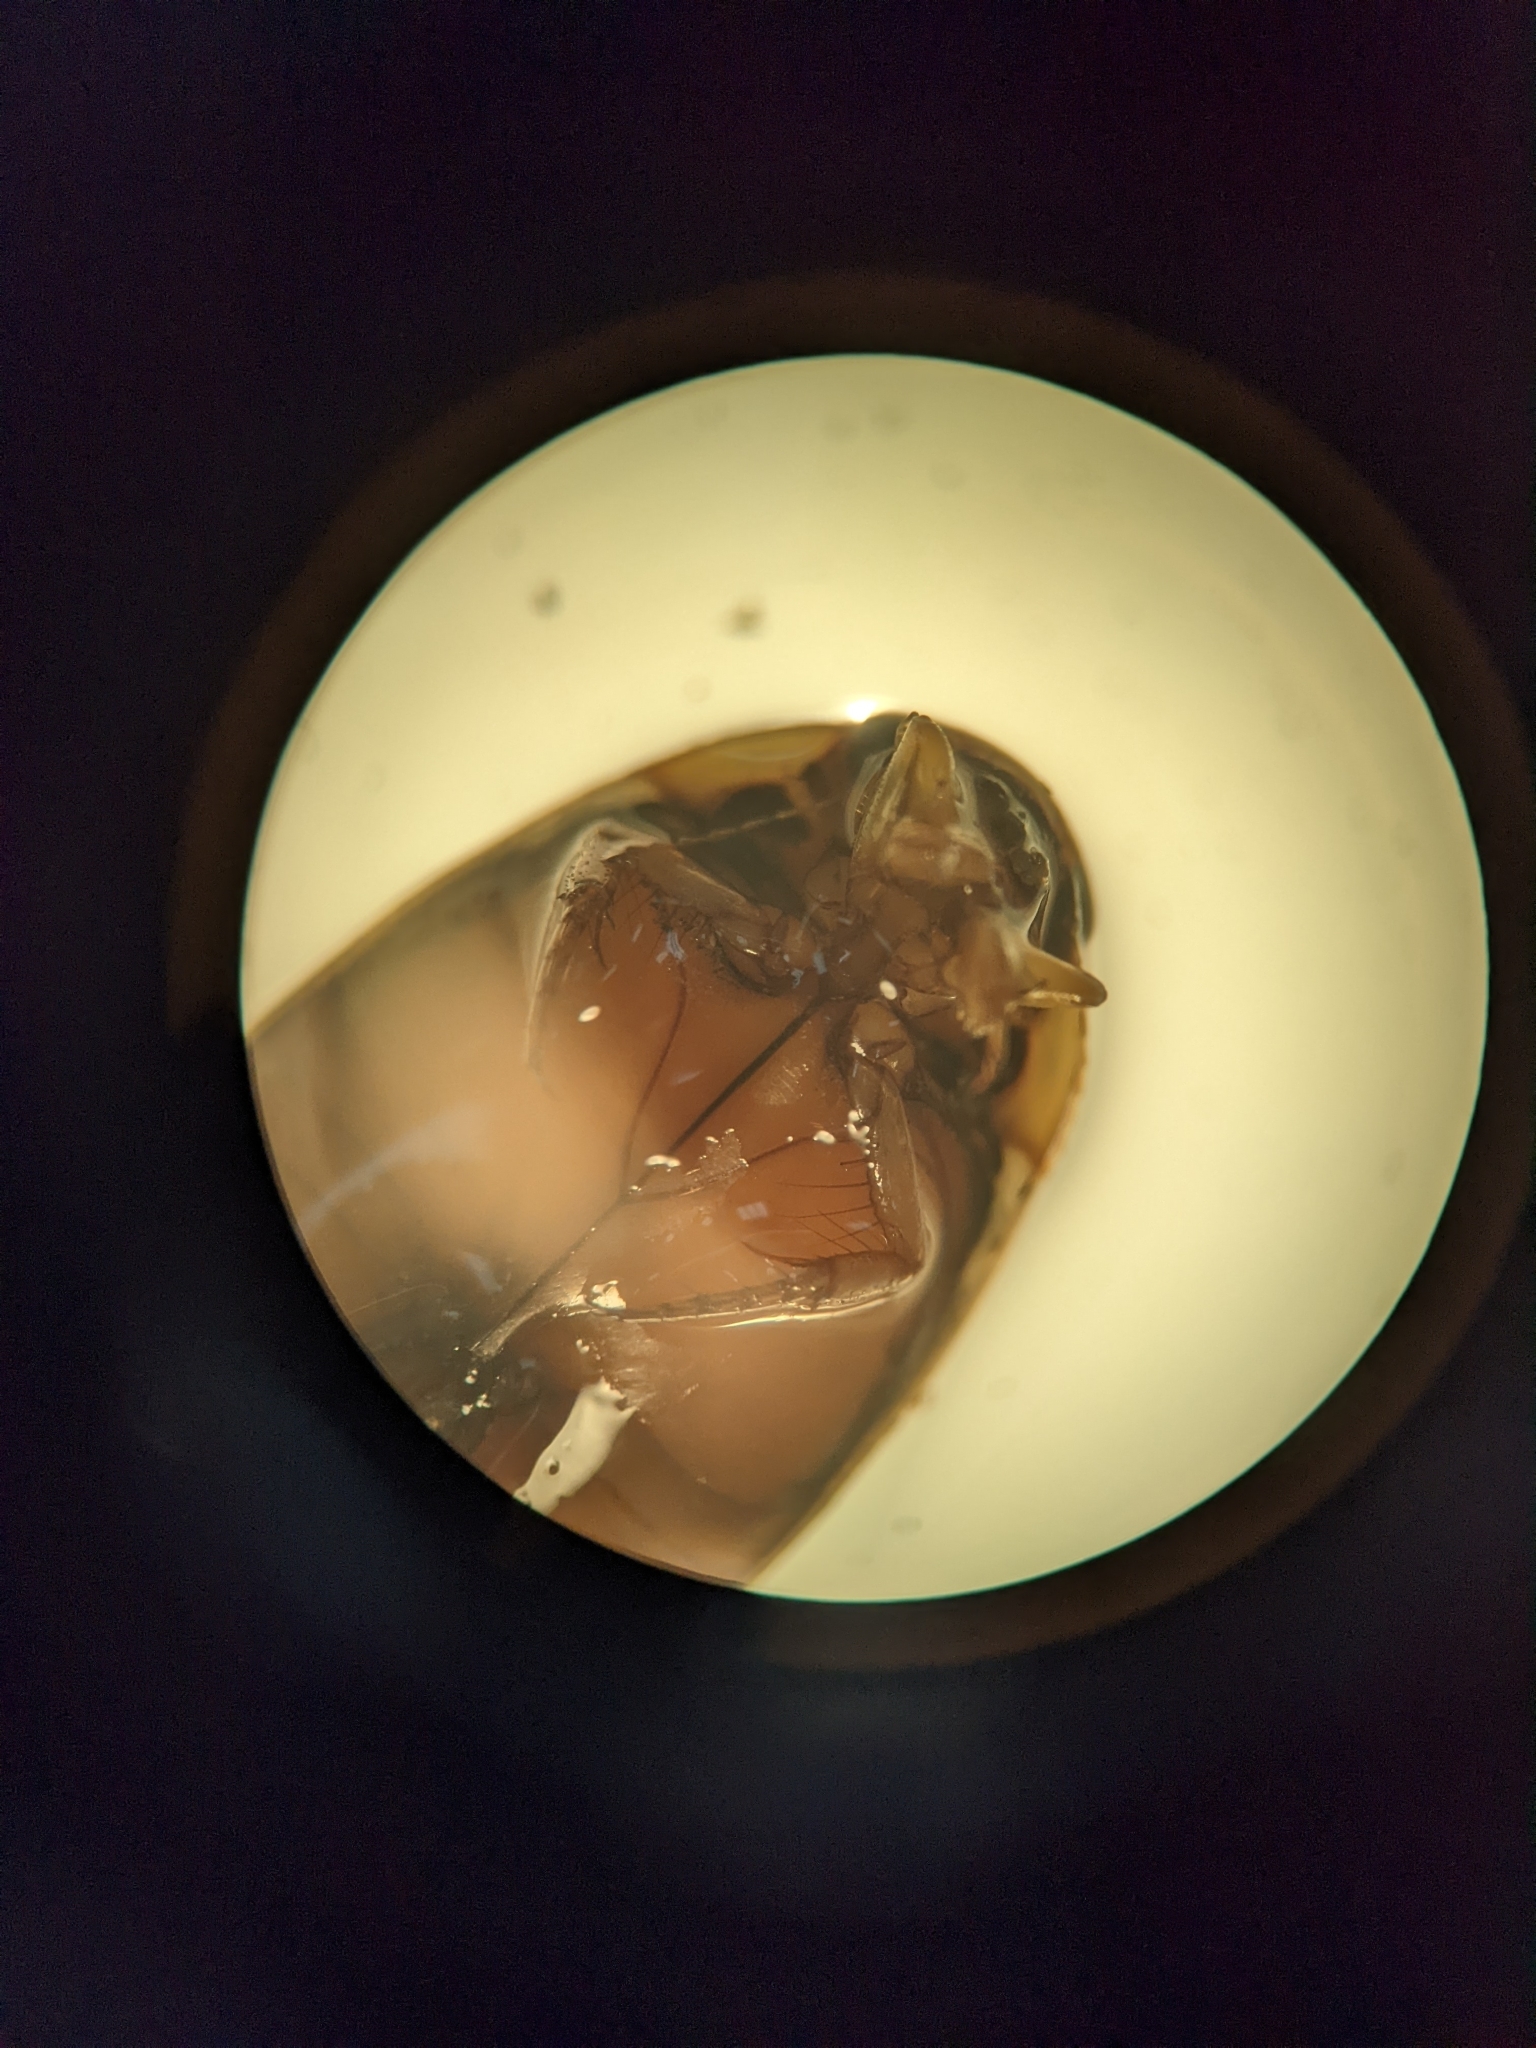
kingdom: Animalia
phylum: Arthropoda
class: Insecta
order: Coleoptera
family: Dytiscidae
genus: Thermonectus
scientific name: Thermonectus nigrofasciatus
